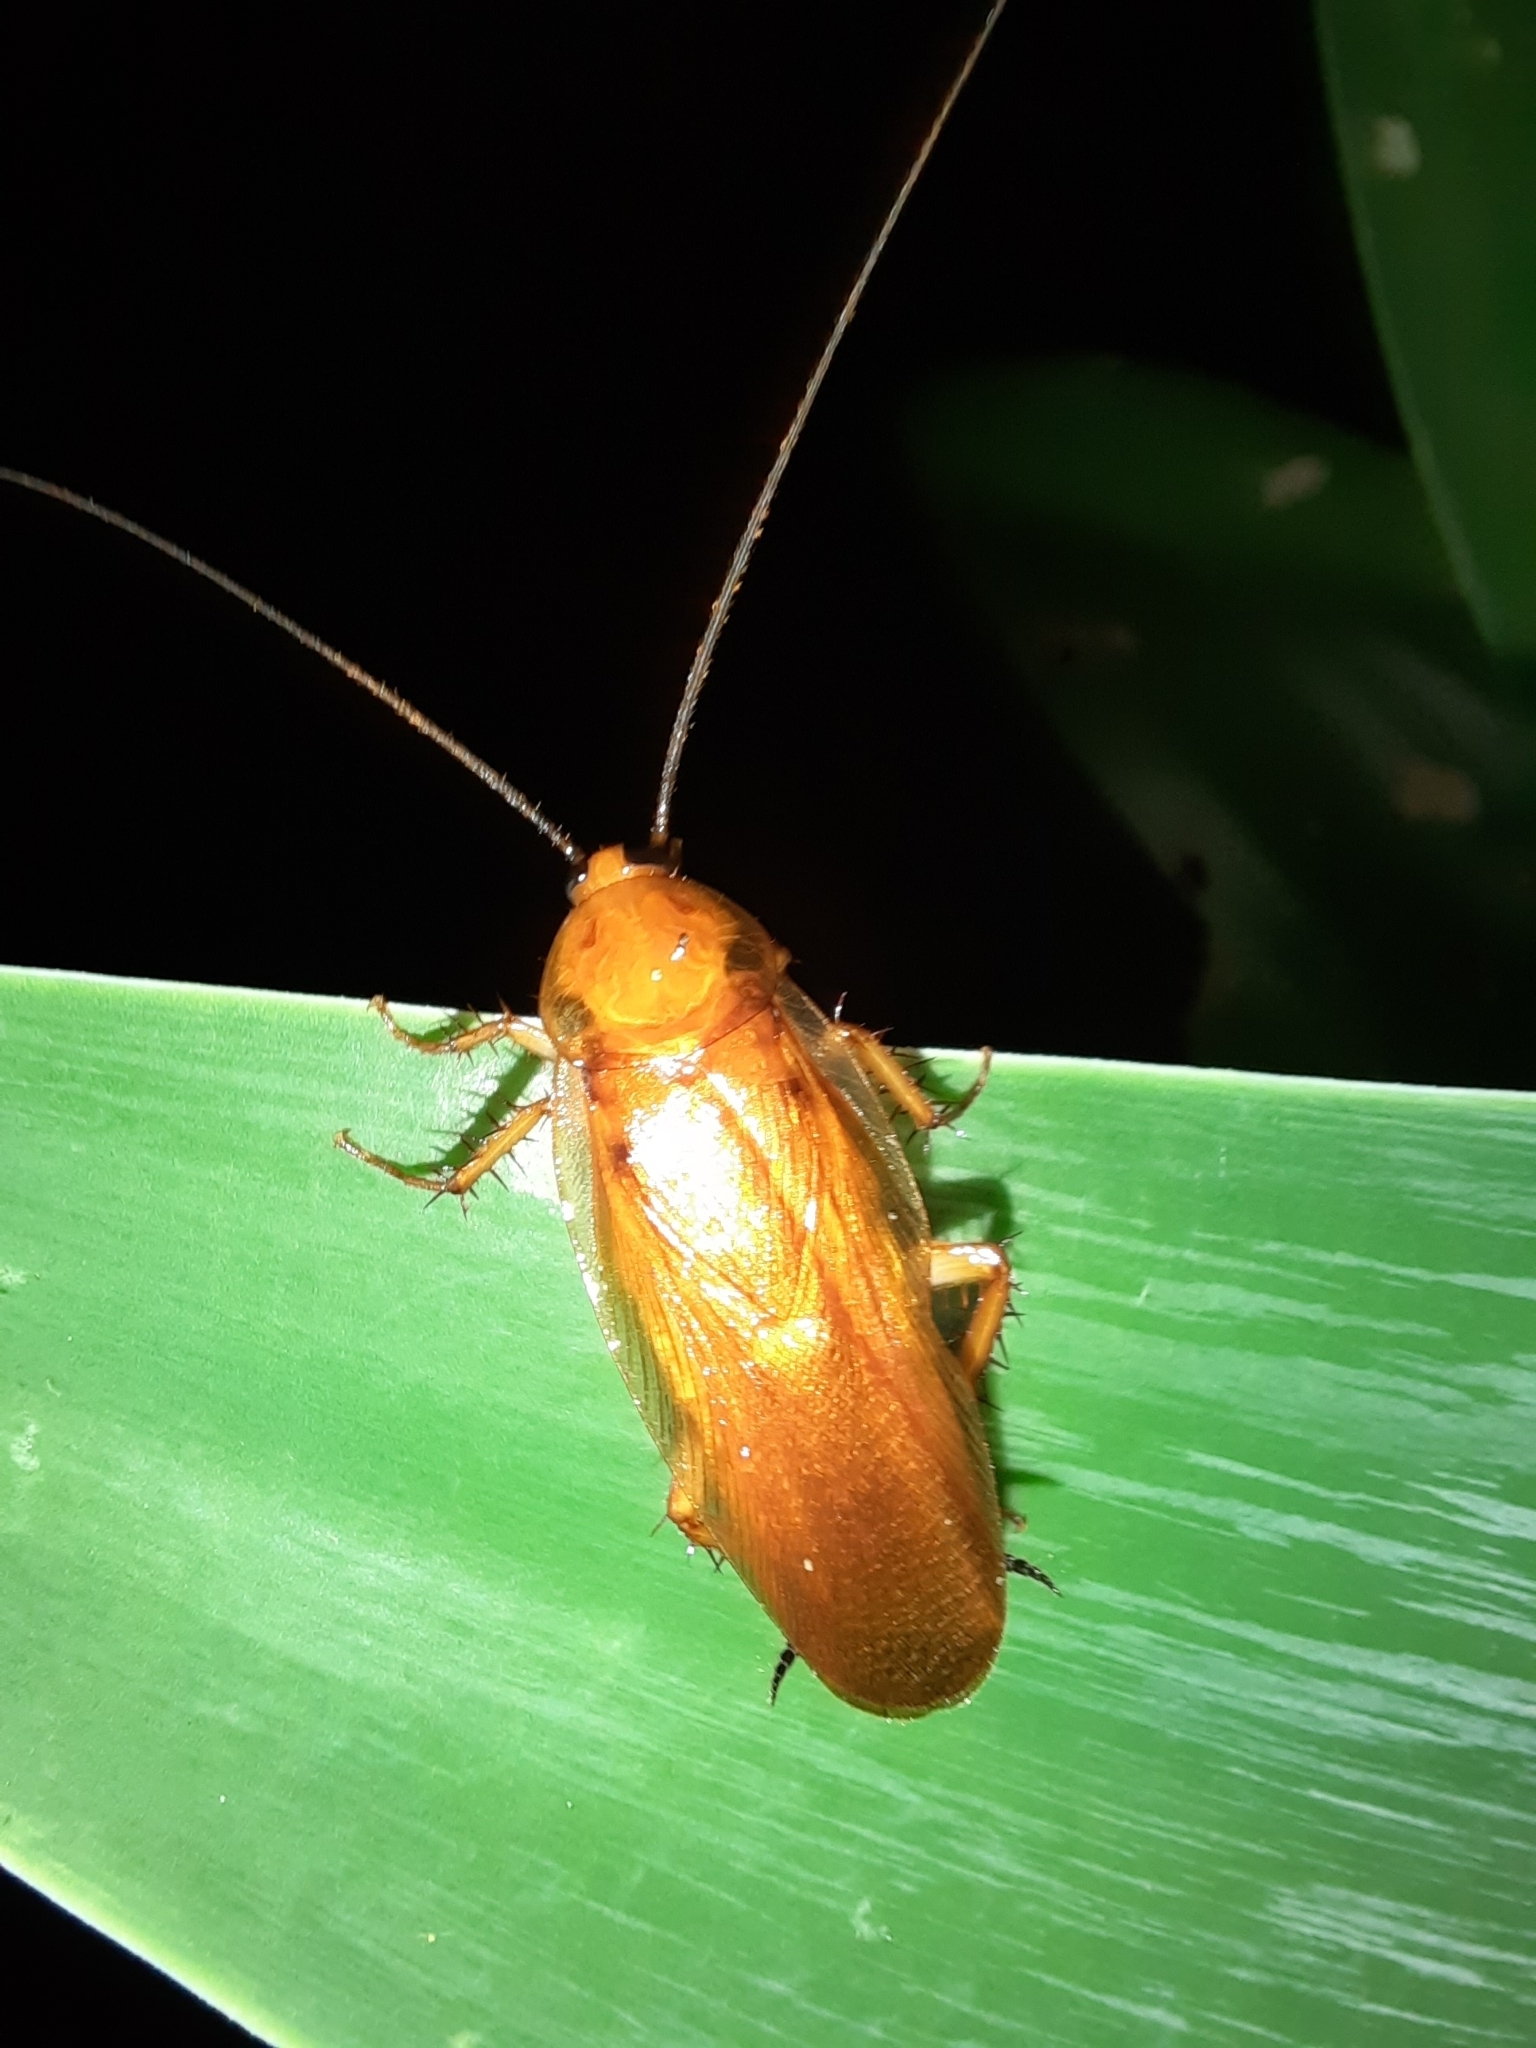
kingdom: Animalia
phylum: Arthropoda
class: Insecta
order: Blattodea
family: Ectobiidae
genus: Neotemnopteryx
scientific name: Neotemnopteryx fulva
